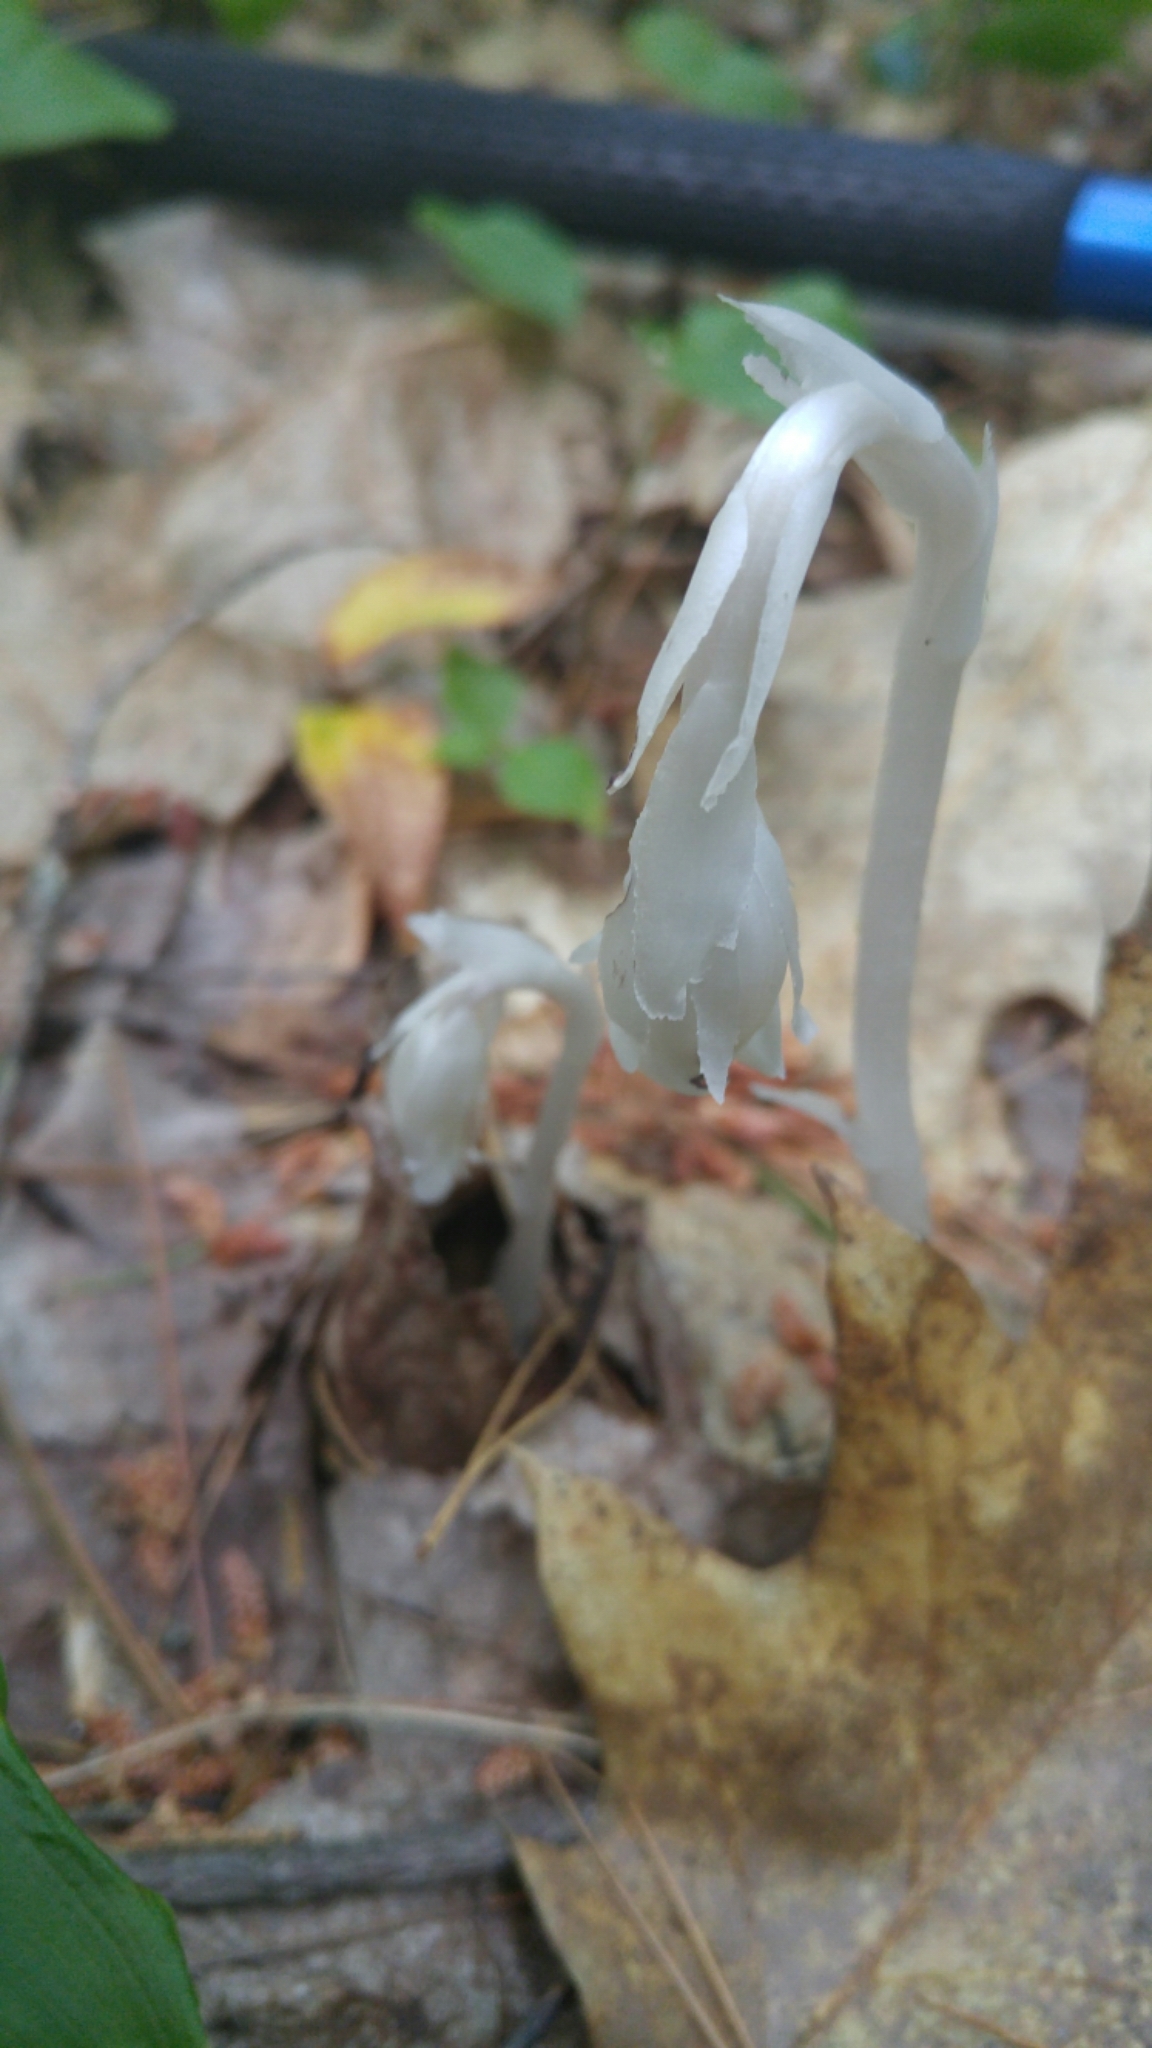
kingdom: Plantae
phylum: Tracheophyta
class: Magnoliopsida
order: Ericales
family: Ericaceae
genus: Monotropa
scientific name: Monotropa uniflora
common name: Convulsion root
